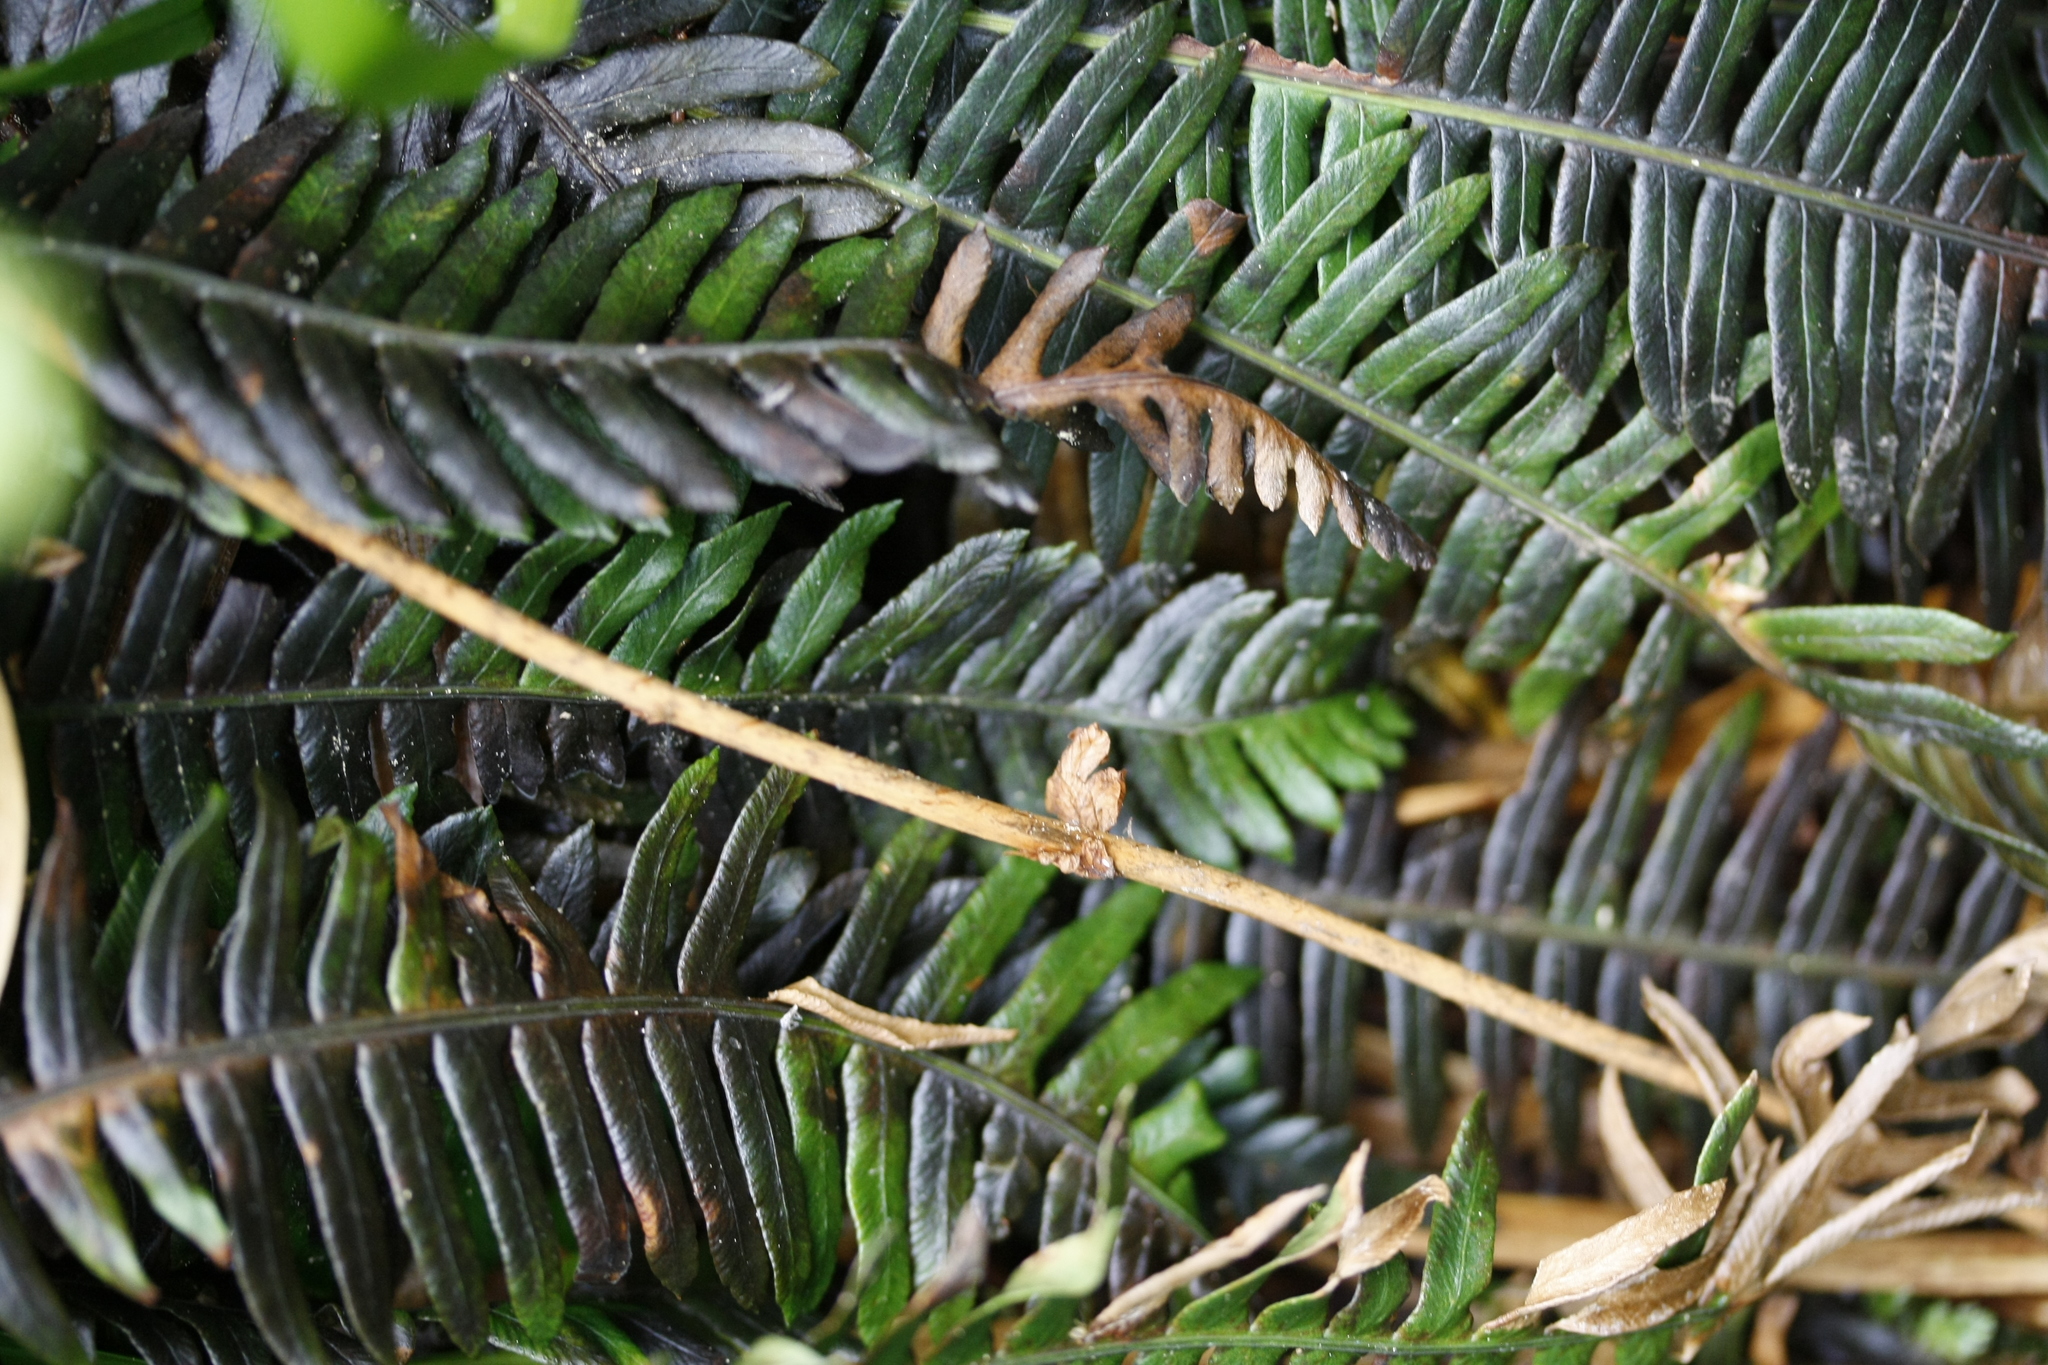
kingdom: Plantae
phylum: Tracheophyta
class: Polypodiopsida
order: Polypodiales
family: Blechnaceae
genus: Struthiopteris
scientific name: Struthiopteris spicant
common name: Deer fern
